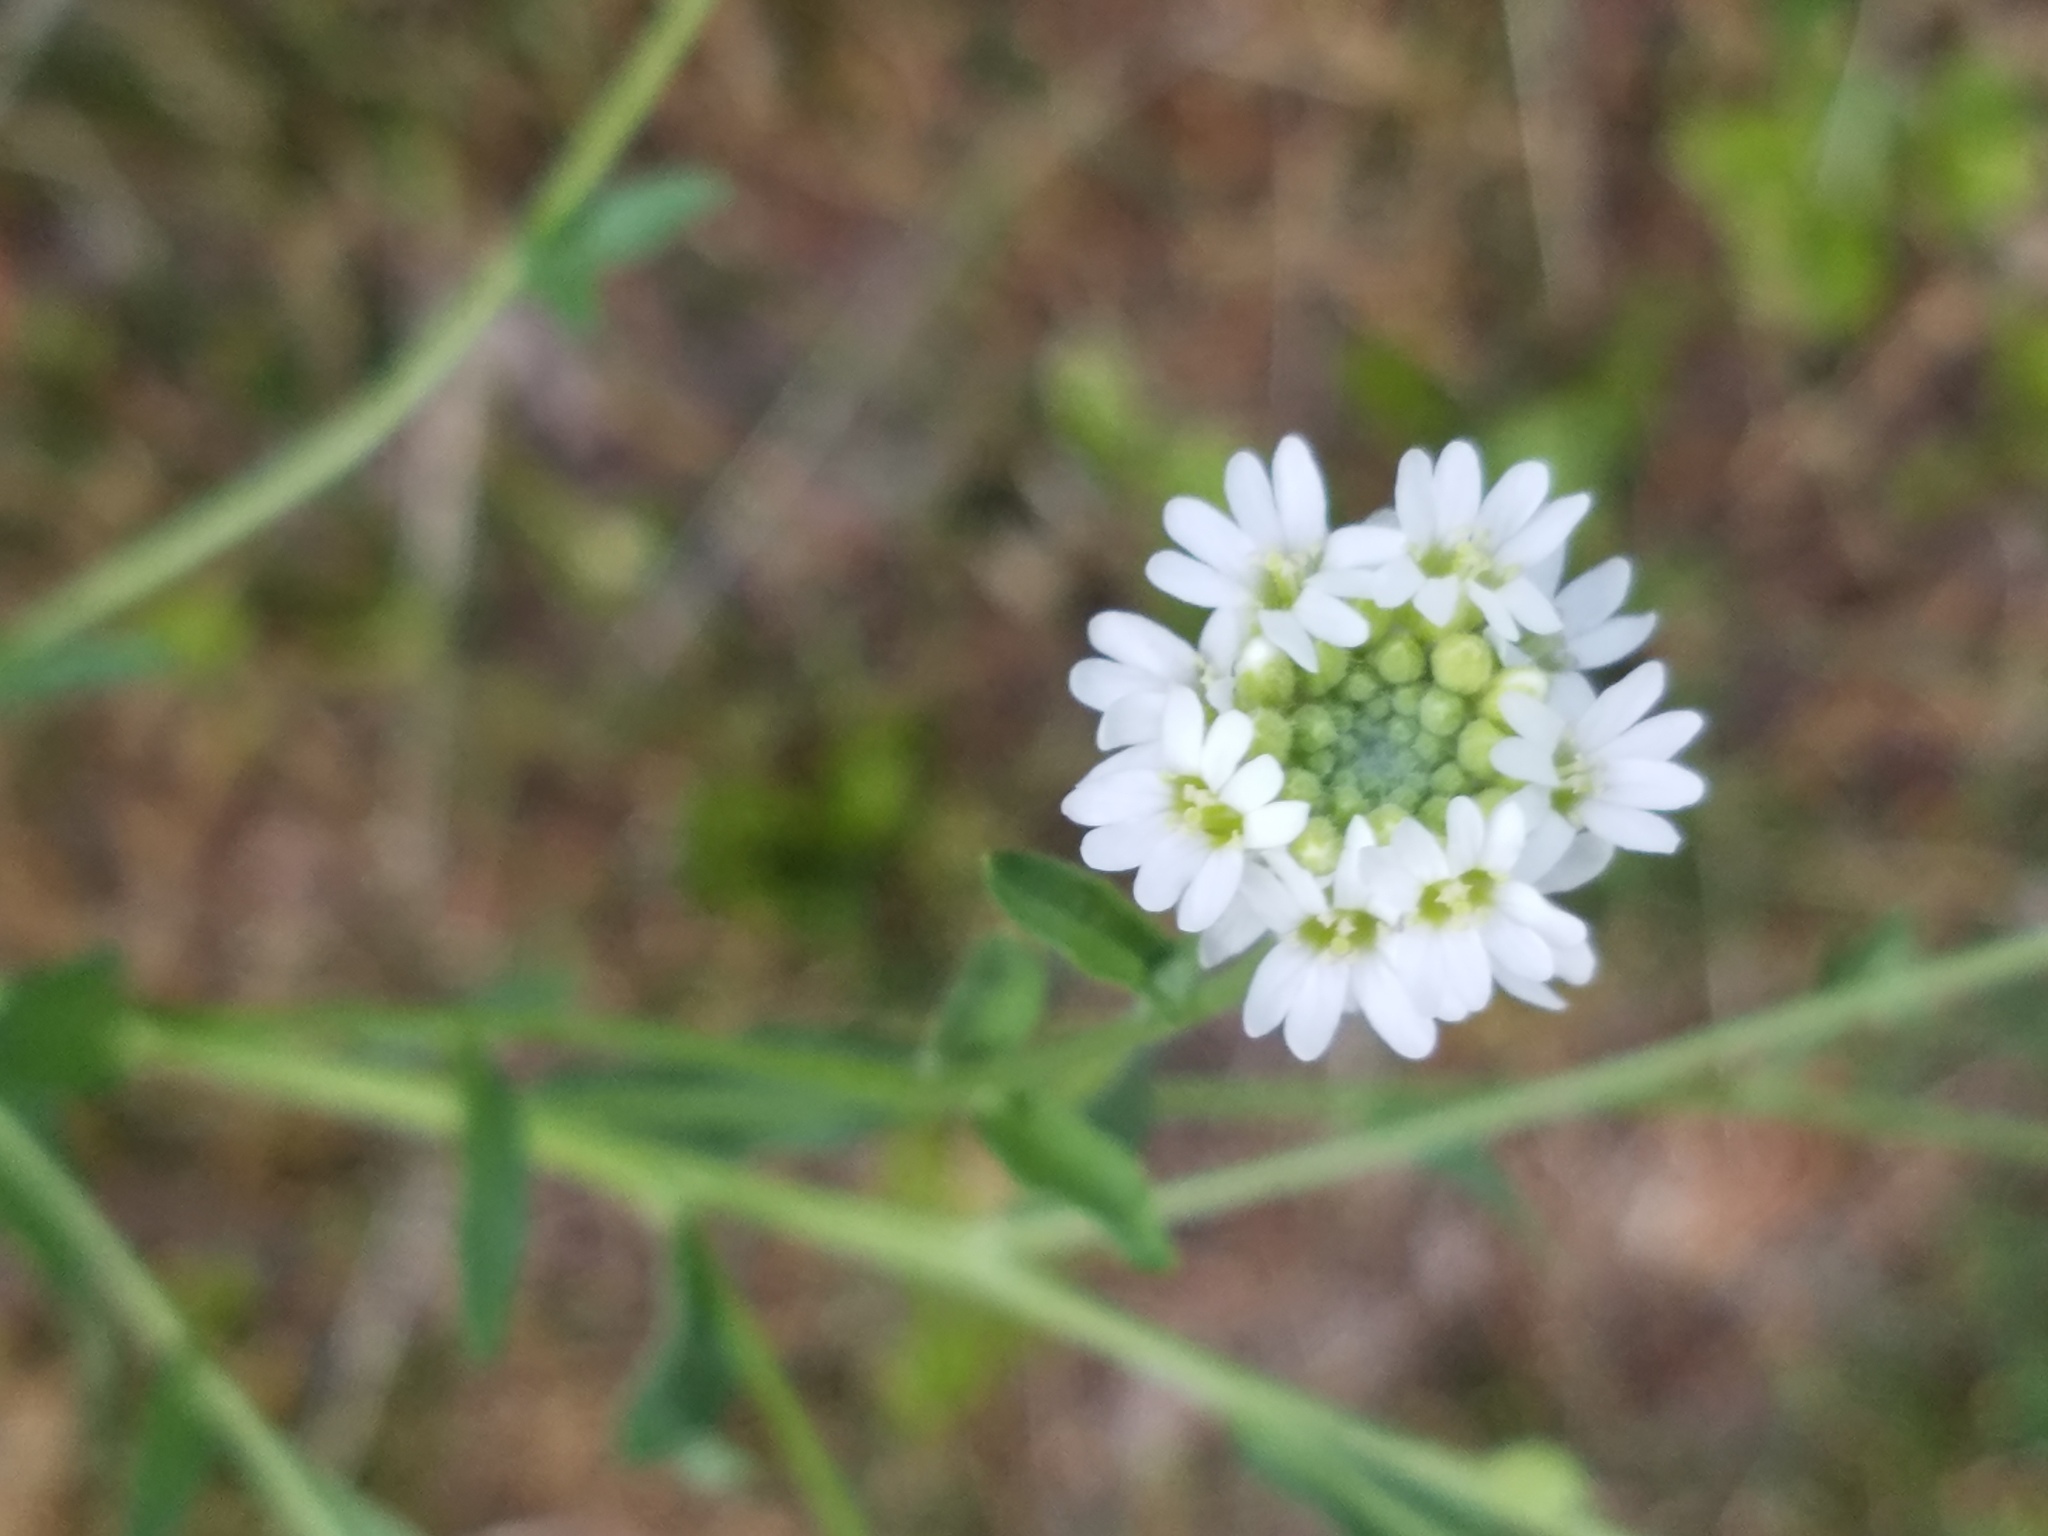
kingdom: Plantae
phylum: Tracheophyta
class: Magnoliopsida
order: Brassicales
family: Brassicaceae
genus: Berteroa
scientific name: Berteroa incana
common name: Hoary alison
